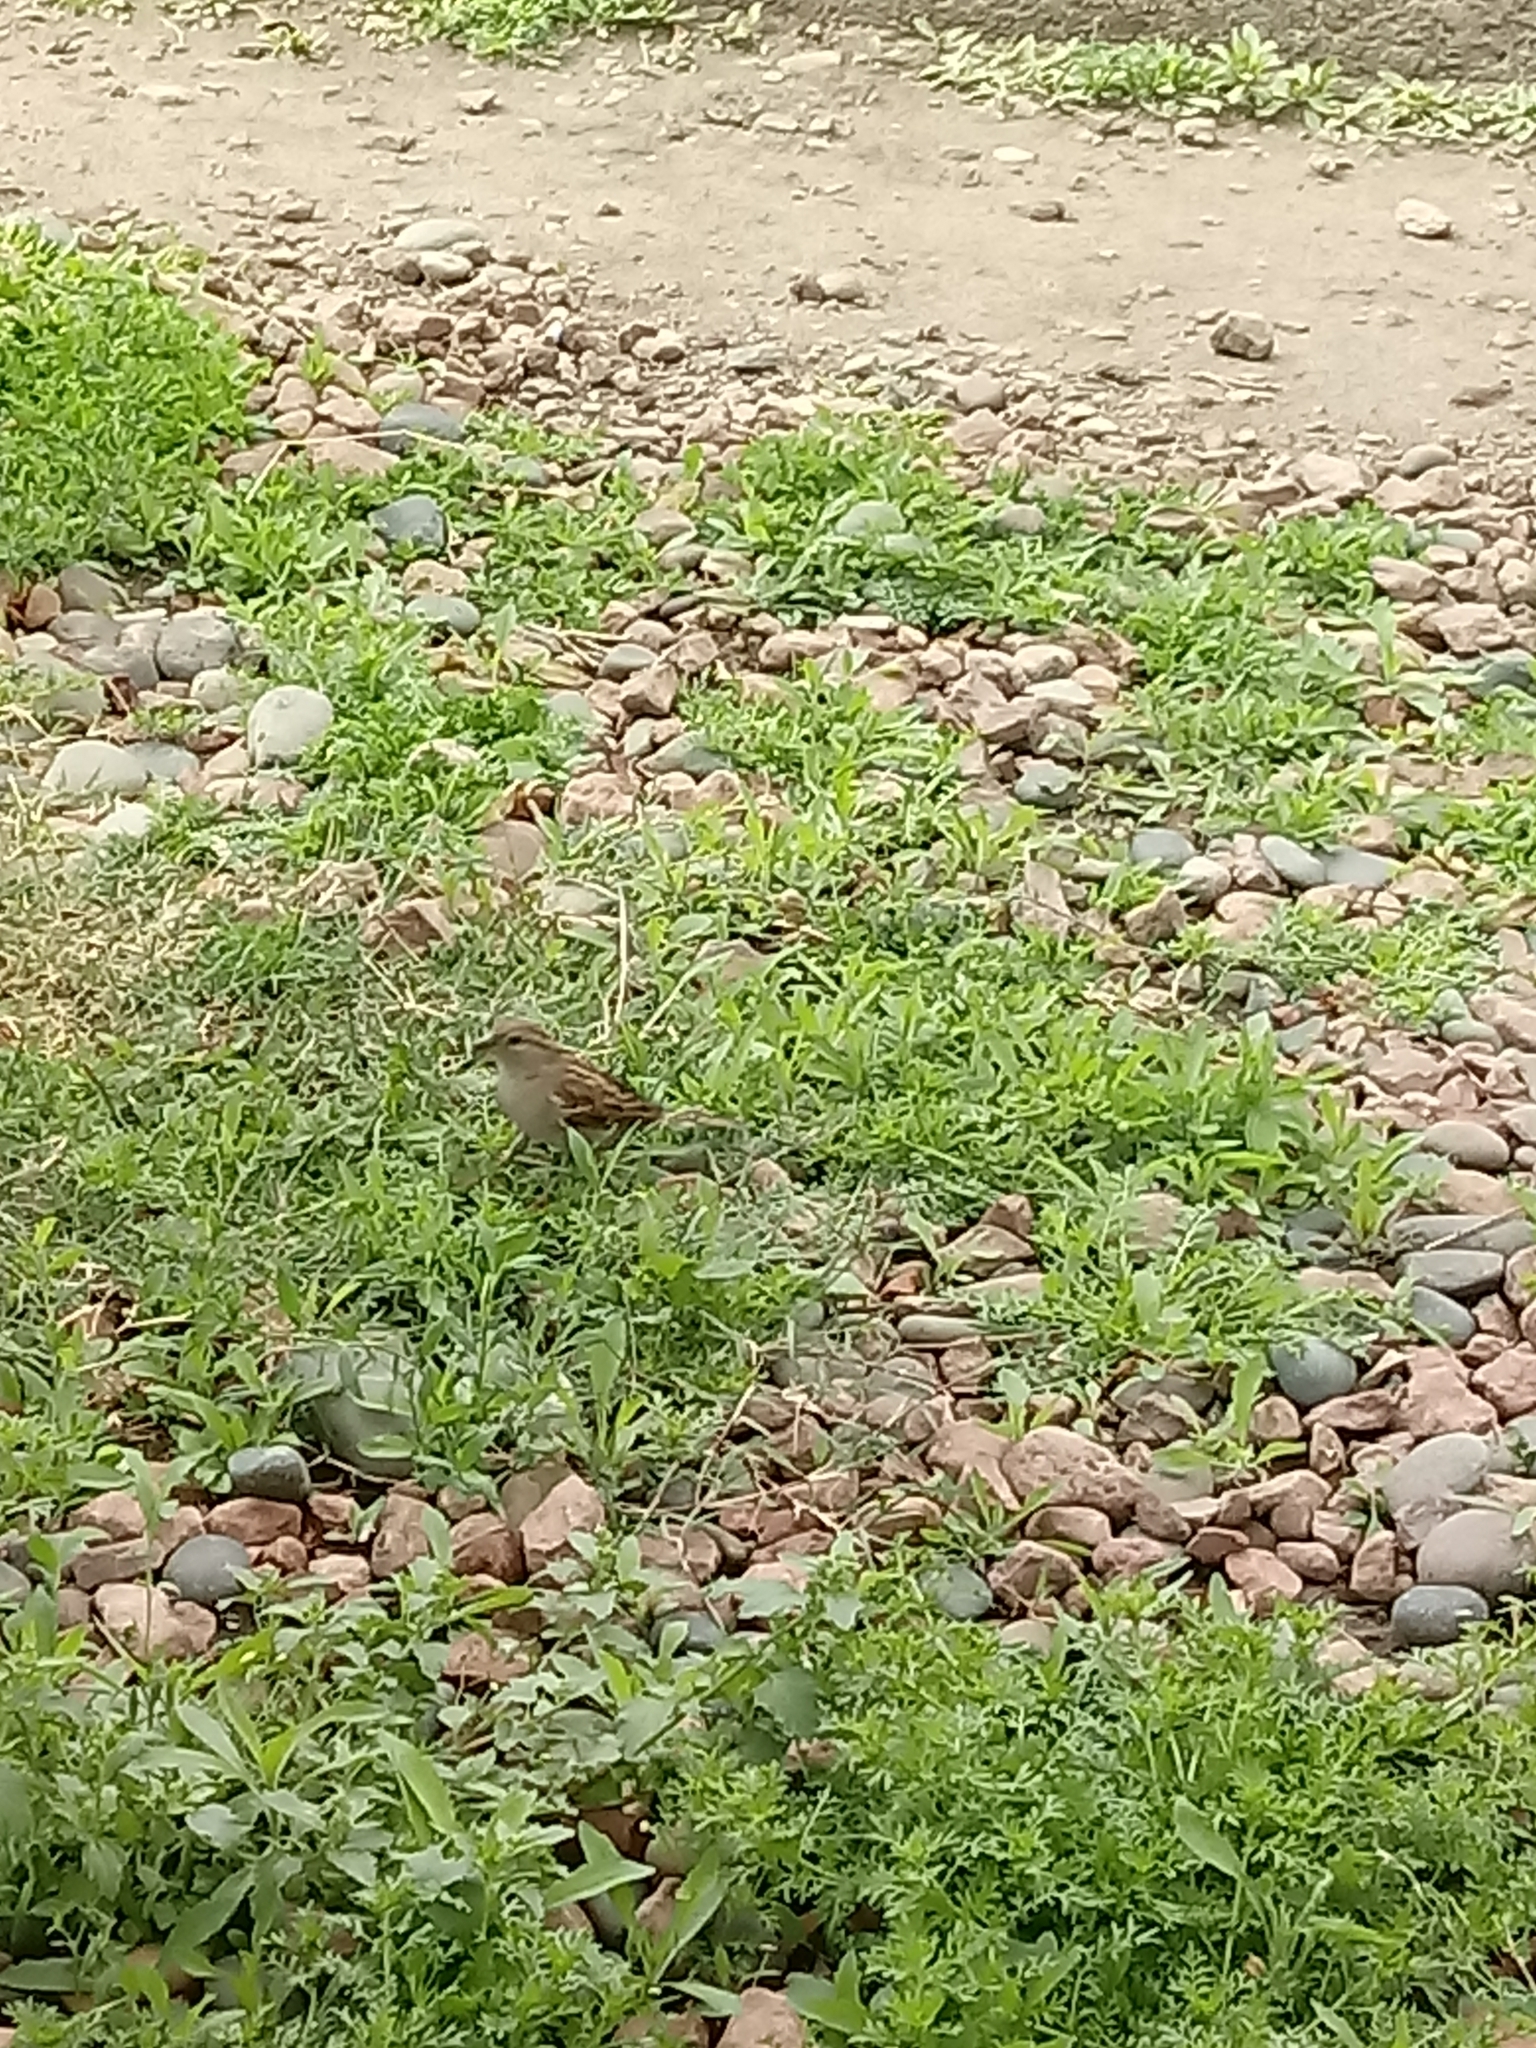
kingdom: Animalia
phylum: Chordata
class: Aves
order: Passeriformes
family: Passeridae
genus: Passer
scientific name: Passer domesticus
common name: House sparrow
